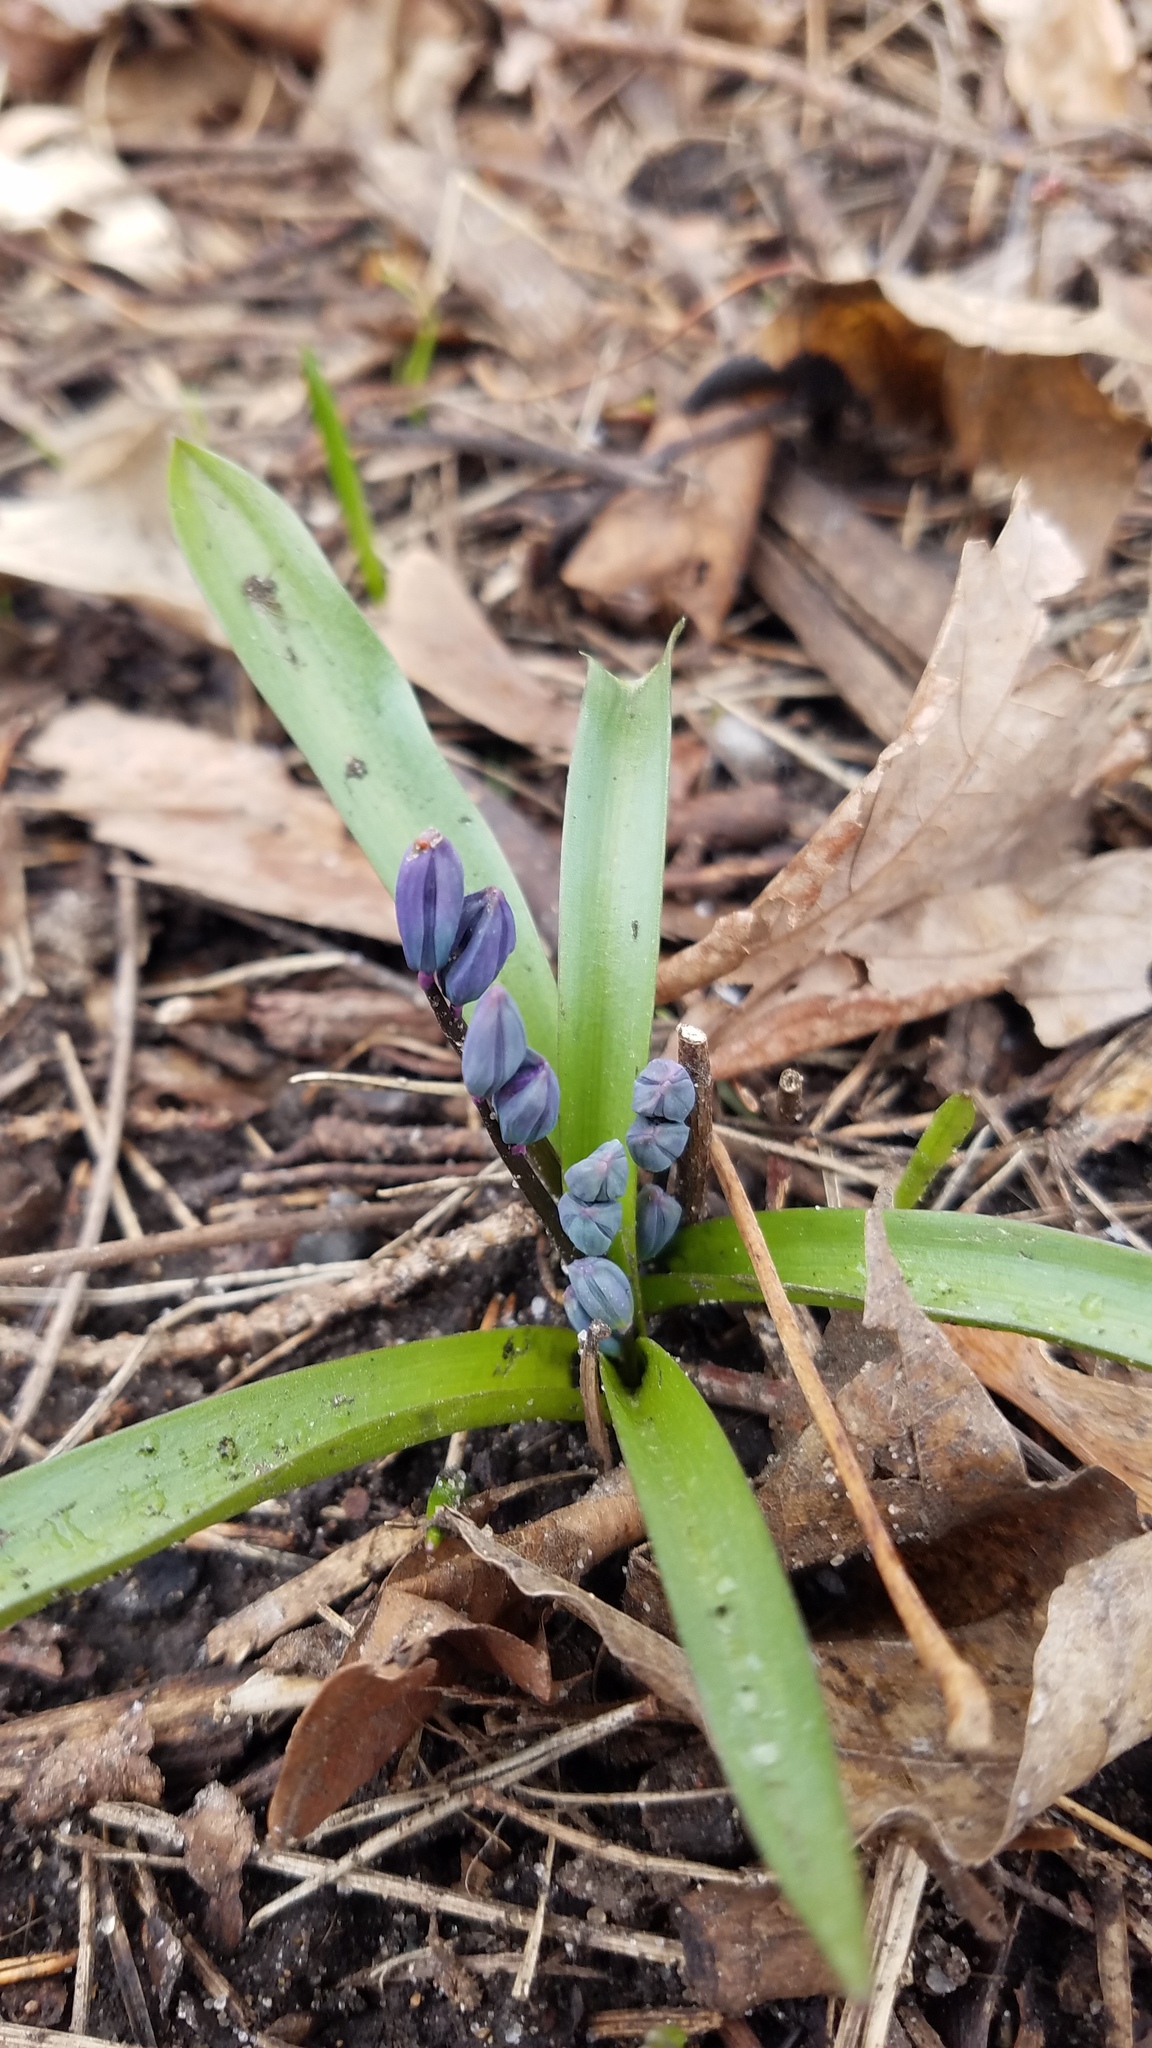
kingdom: Plantae
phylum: Tracheophyta
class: Liliopsida
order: Asparagales
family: Asparagaceae
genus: Scilla
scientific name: Scilla siberica
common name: Siberian squill
